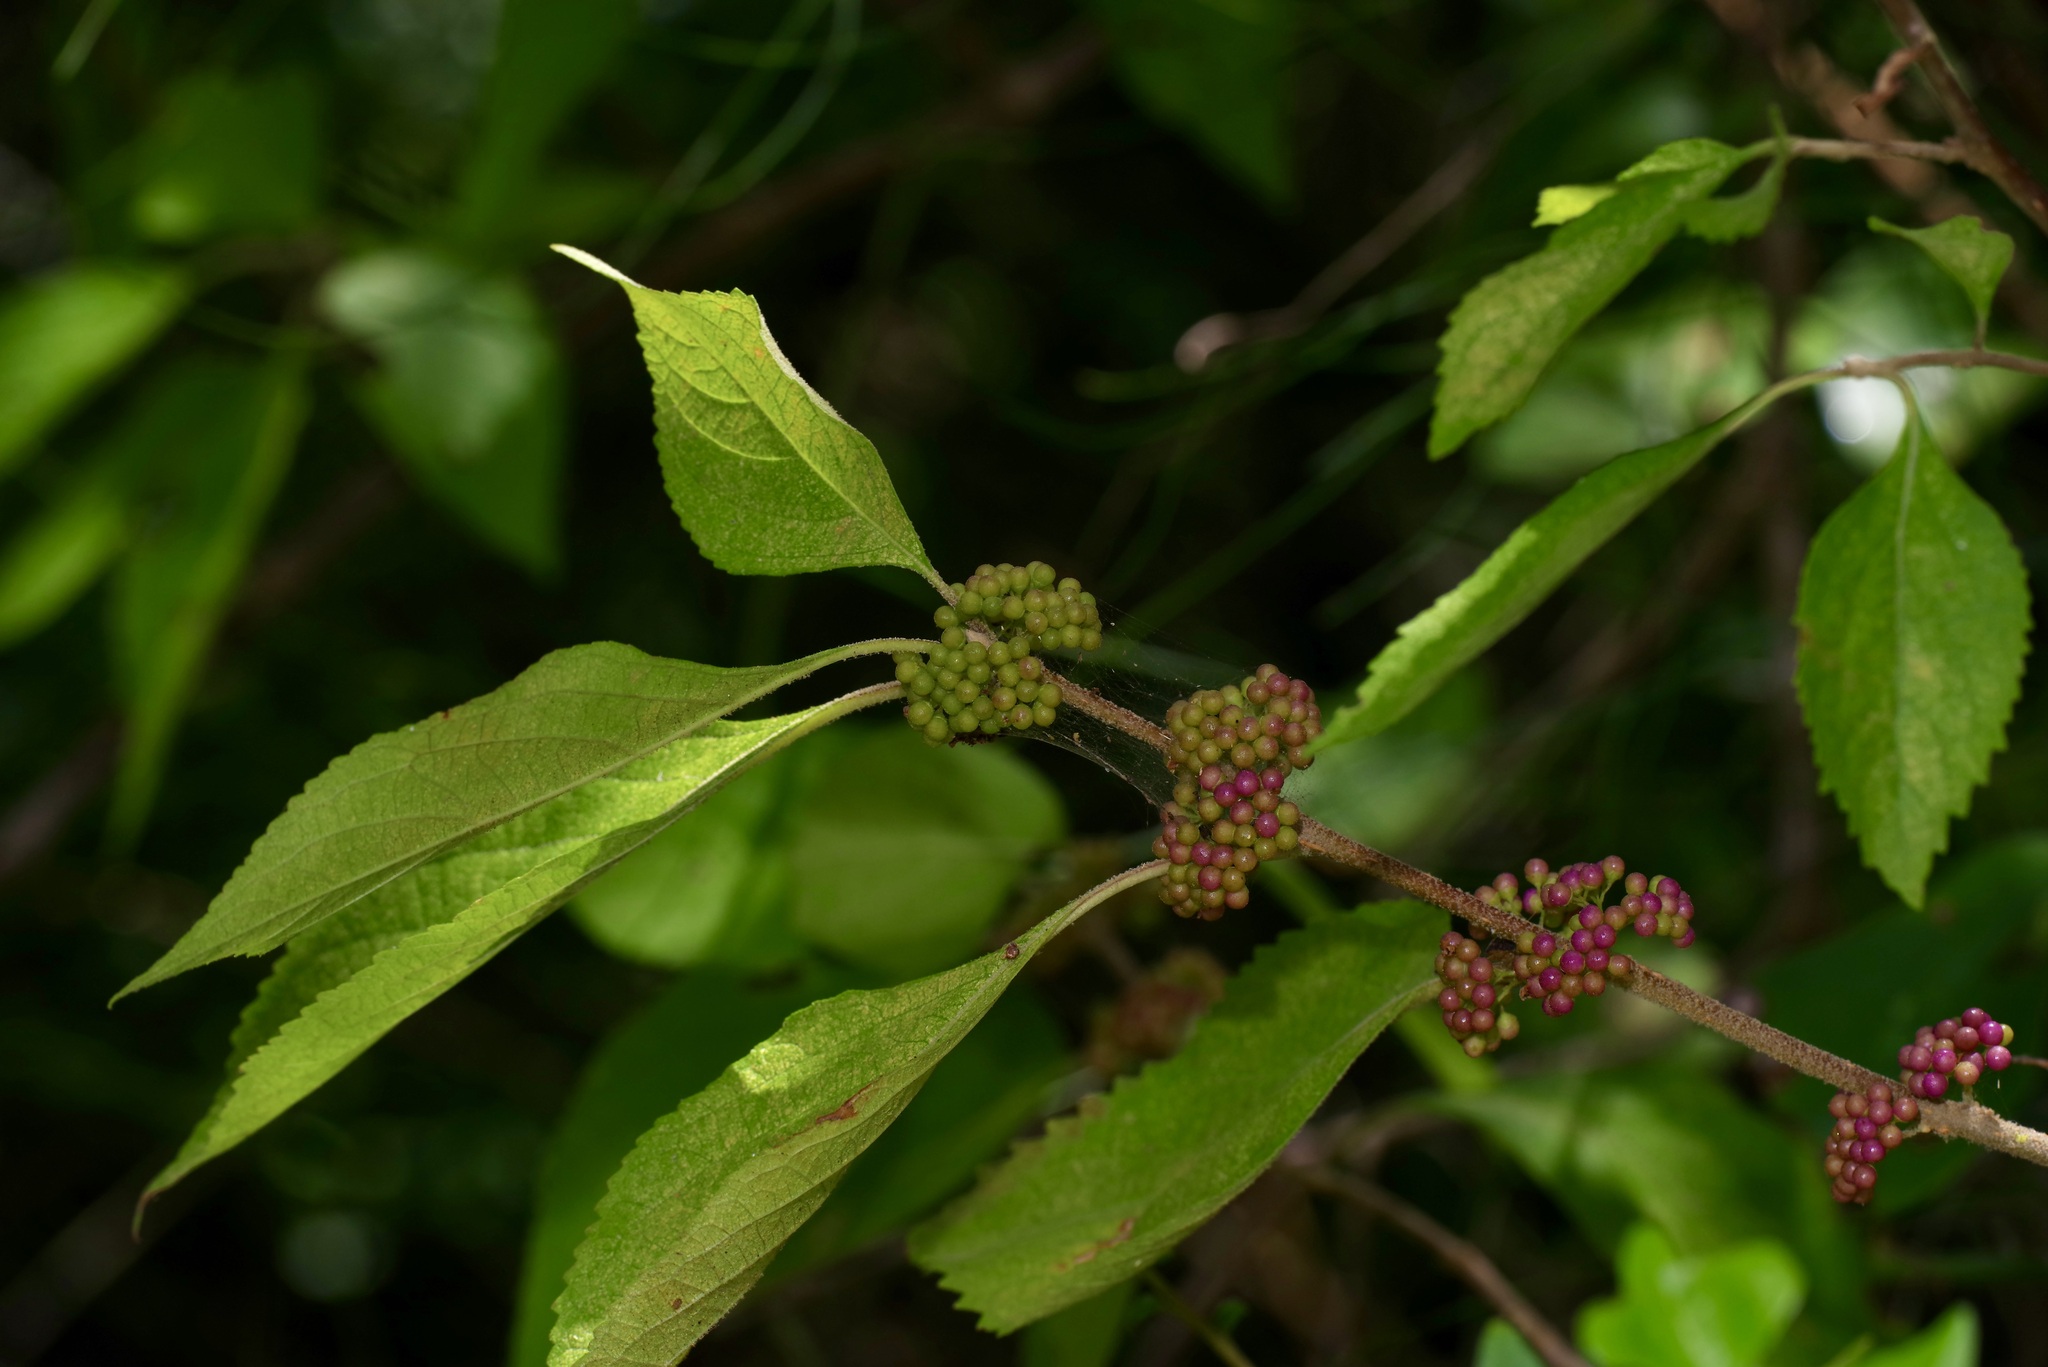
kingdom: Plantae
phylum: Tracheophyta
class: Magnoliopsida
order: Lamiales
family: Lamiaceae
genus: Callicarpa
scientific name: Callicarpa americana
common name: American beautyberry
